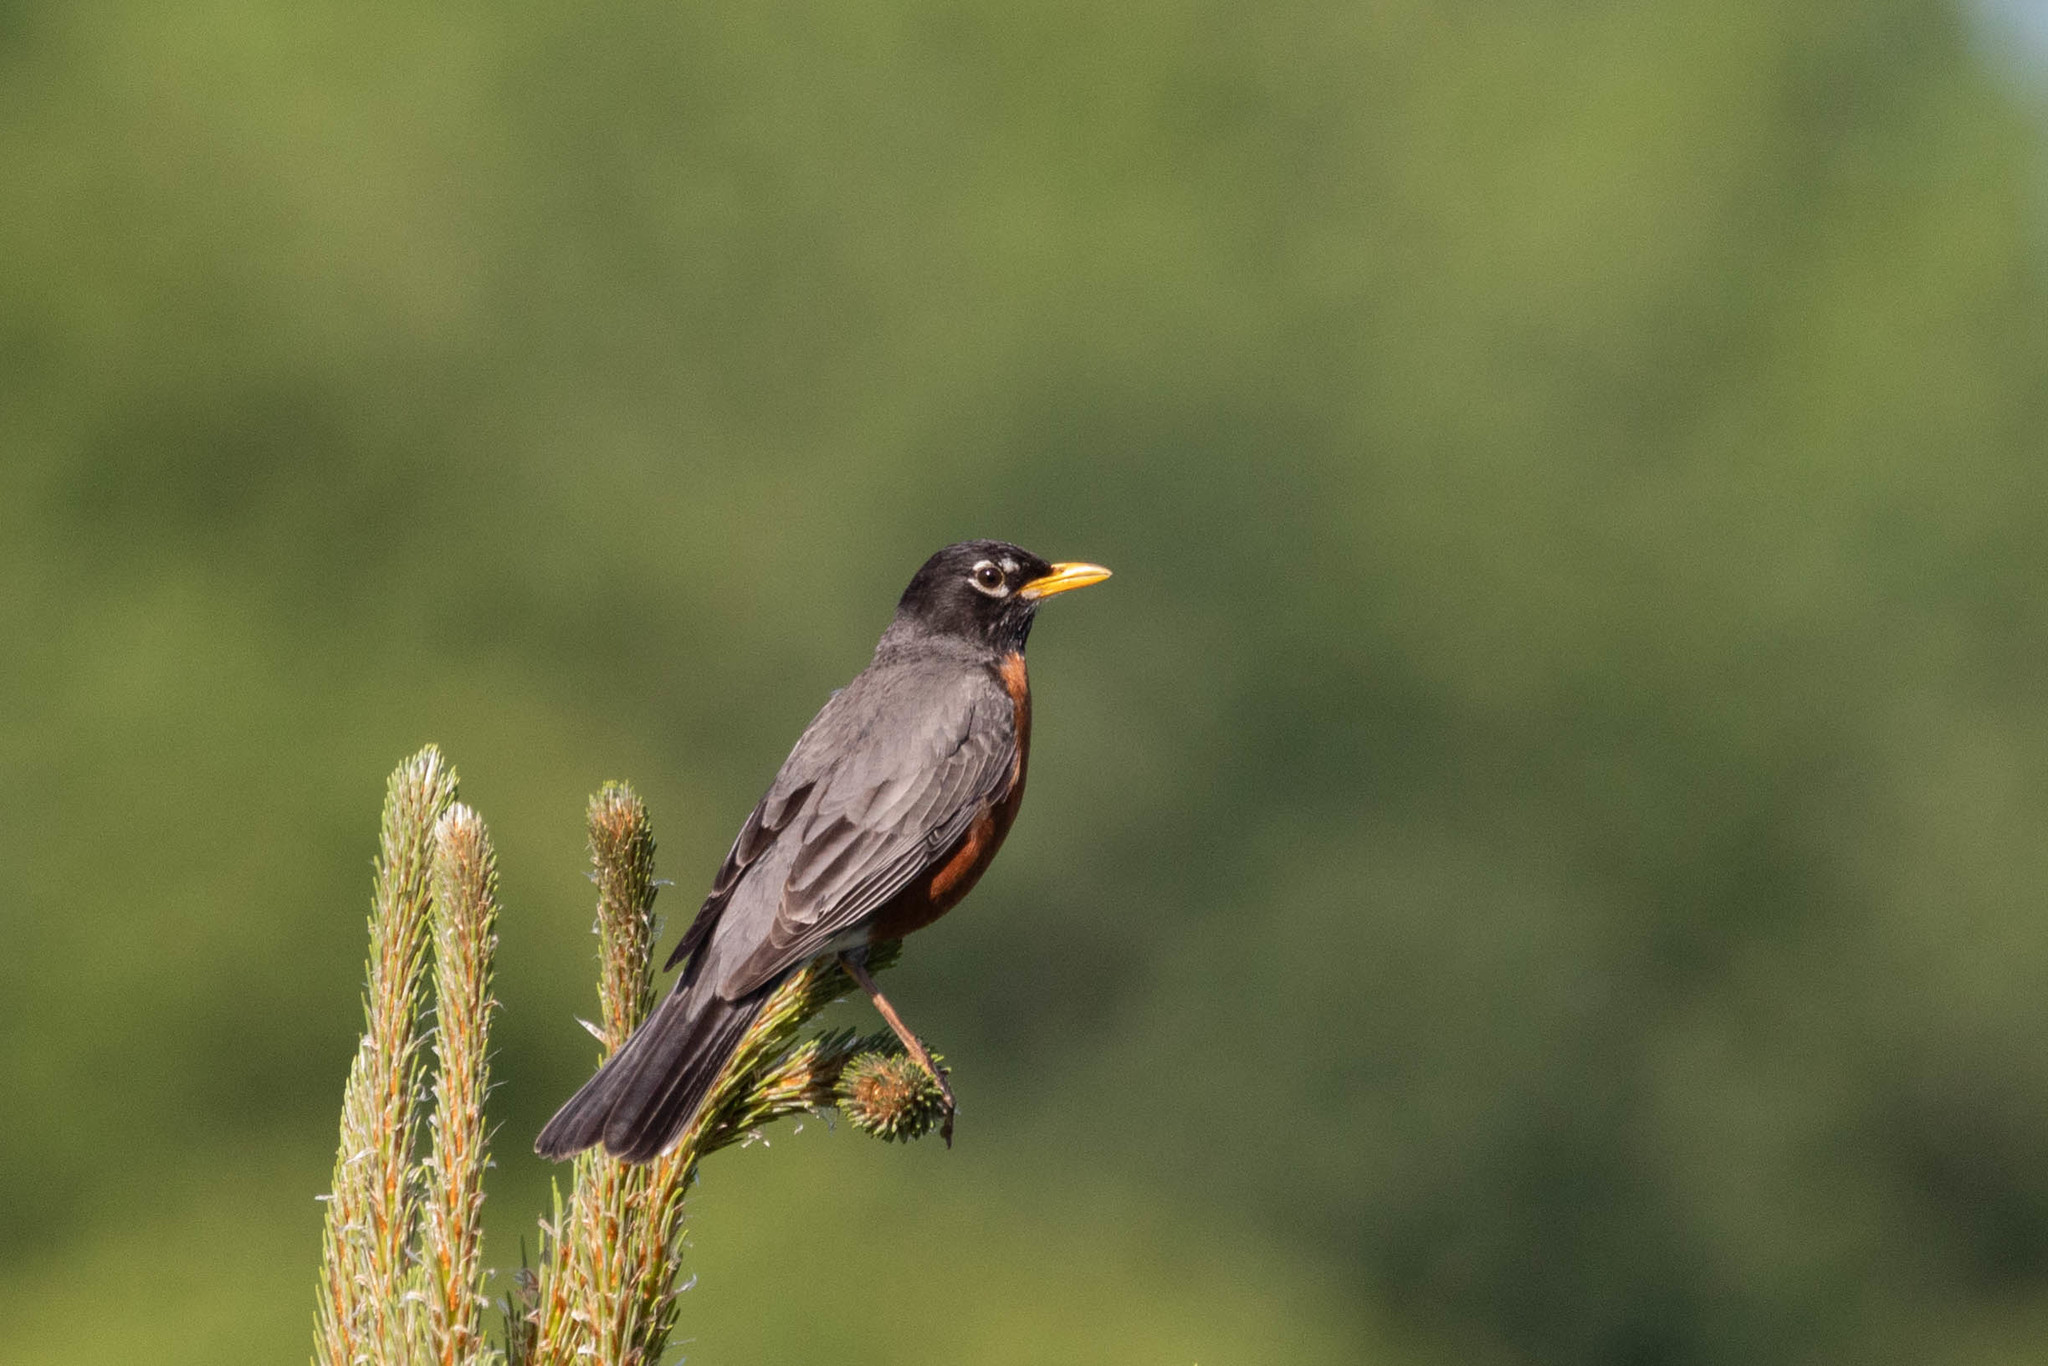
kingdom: Animalia
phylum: Chordata
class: Aves
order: Passeriformes
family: Turdidae
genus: Turdus
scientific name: Turdus migratorius
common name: American robin
